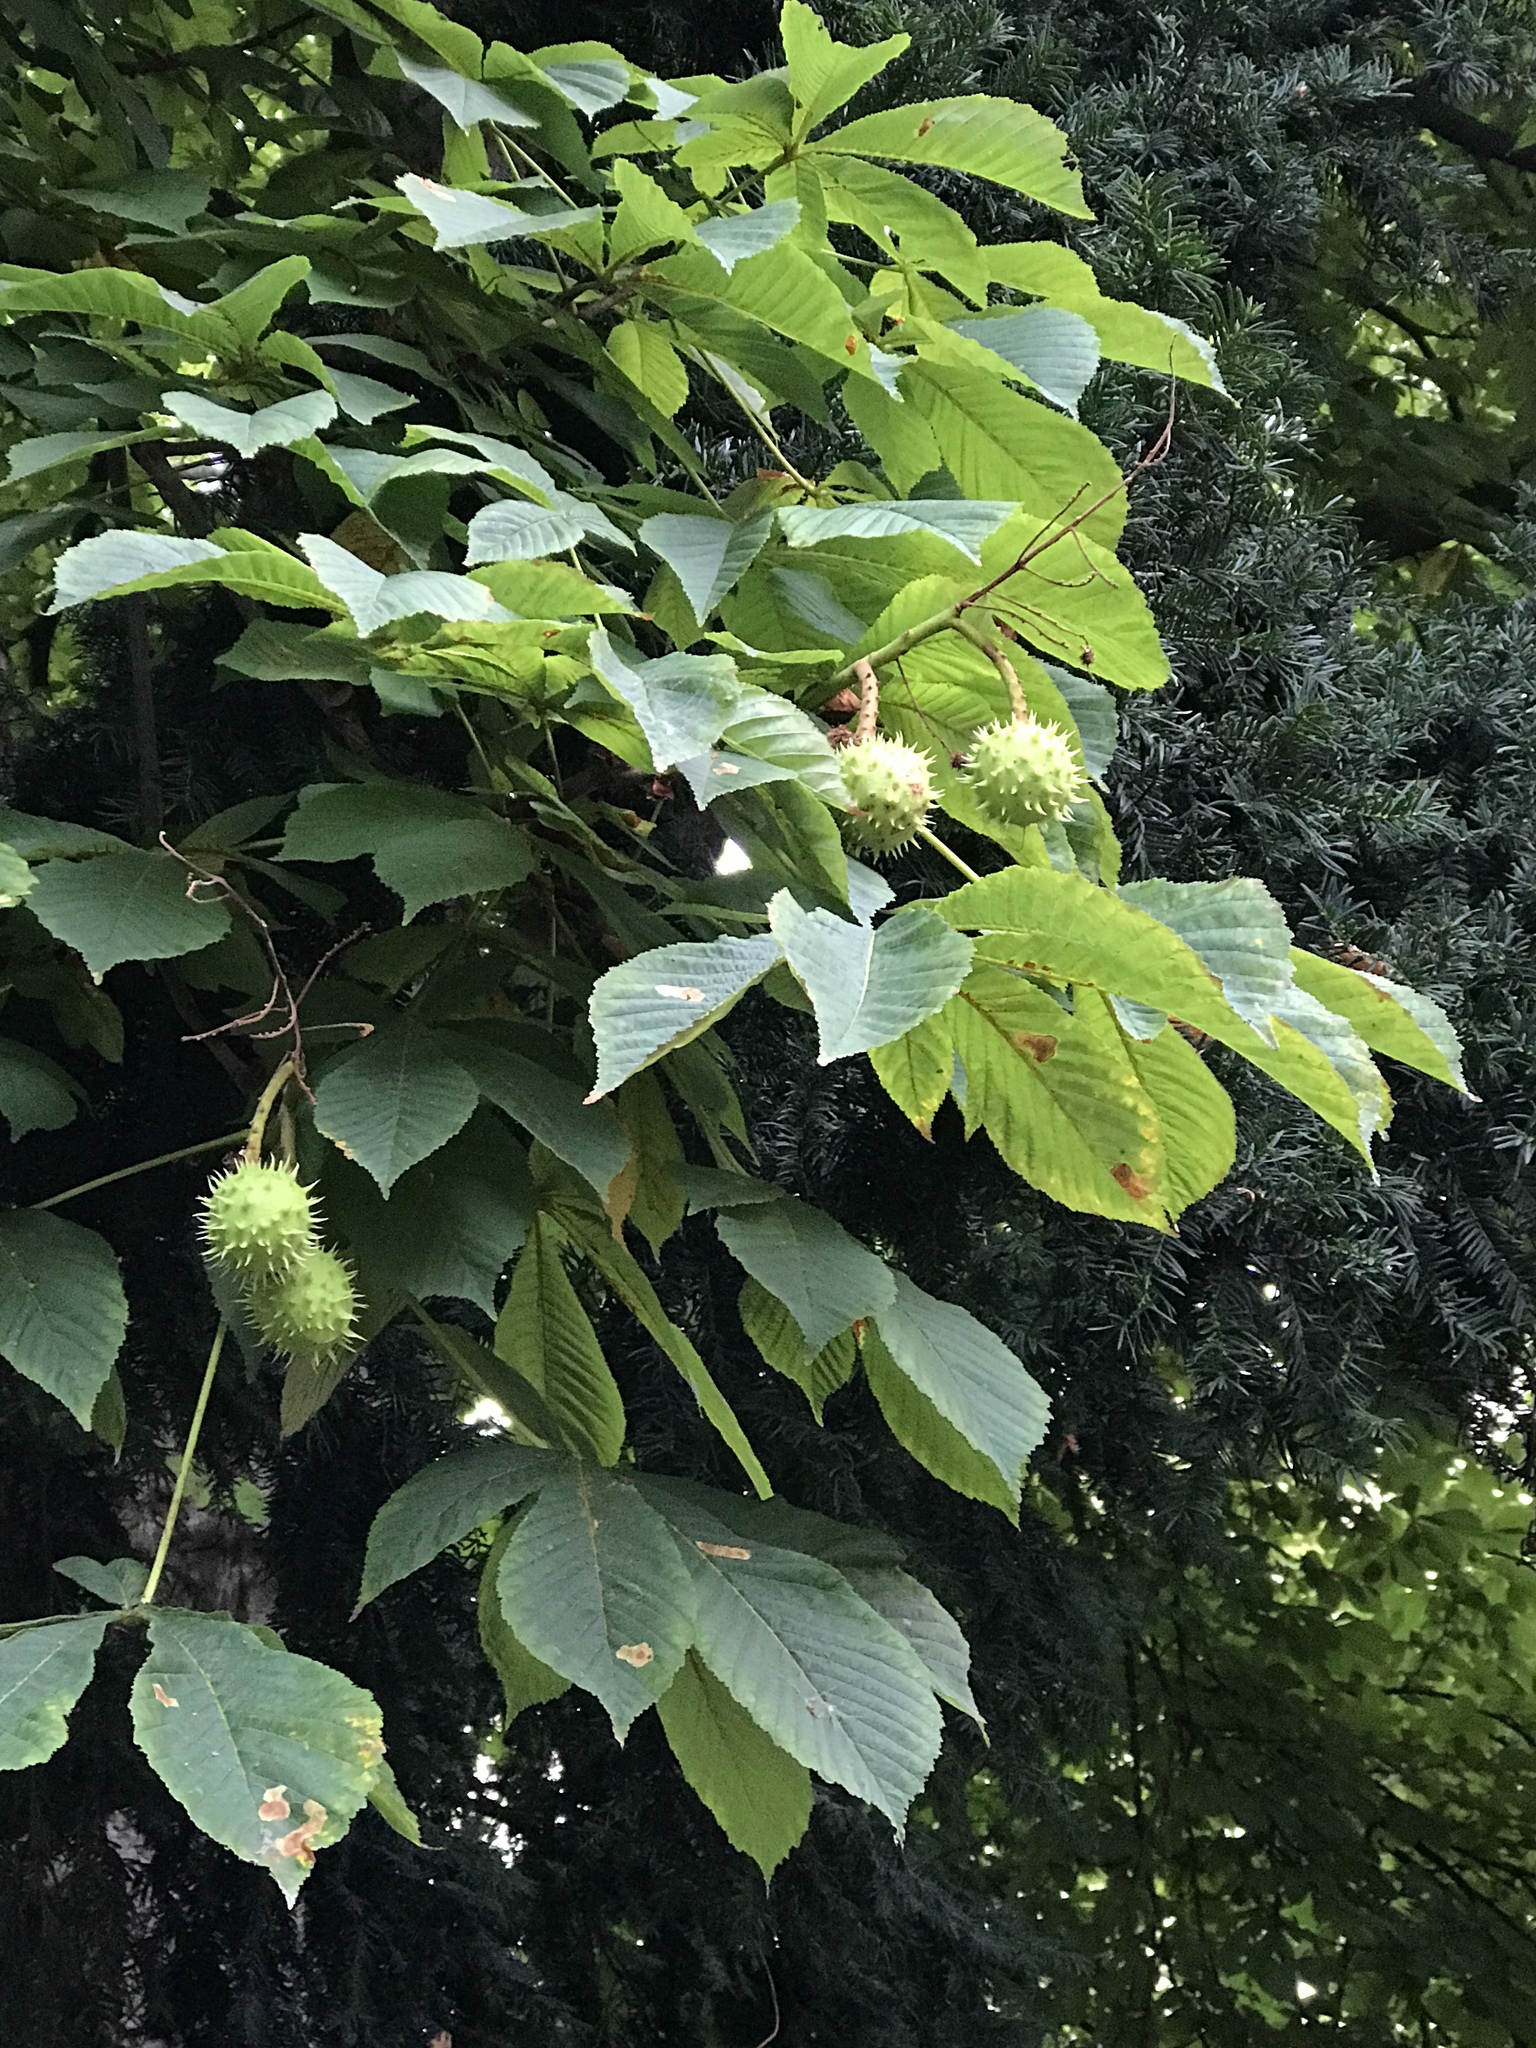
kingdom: Plantae
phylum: Tracheophyta
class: Magnoliopsida
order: Sapindales
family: Sapindaceae
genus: Aesculus
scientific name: Aesculus hippocastanum
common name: Horse-chestnut
